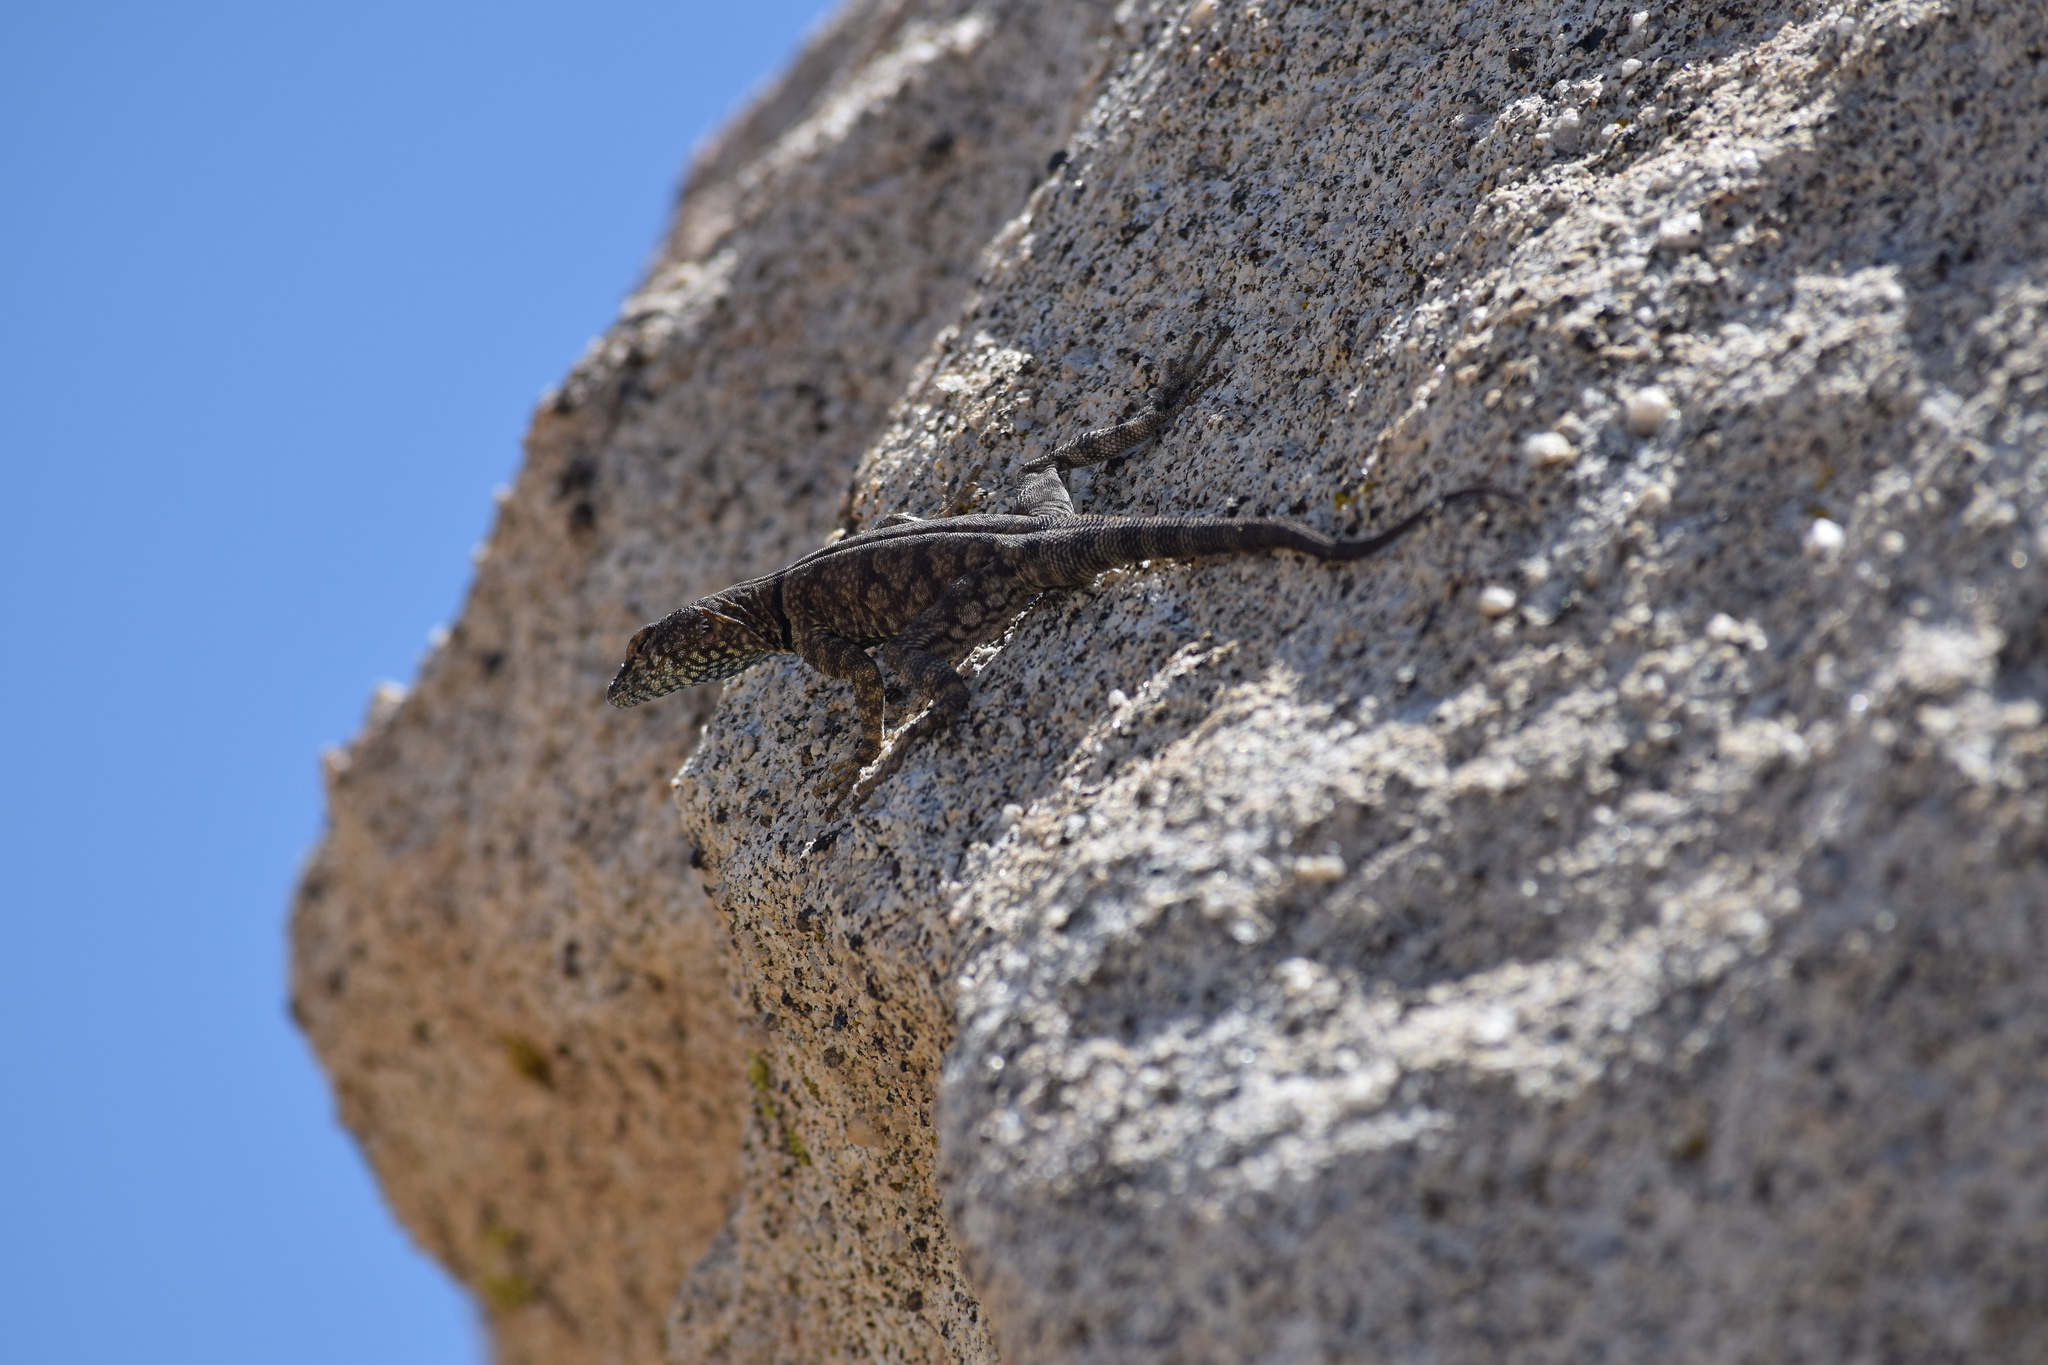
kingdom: Animalia
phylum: Chordata
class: Squamata
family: Phrynosomatidae
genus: Petrosaurus
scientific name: Petrosaurus mearnsi
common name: Banded rock lizard
